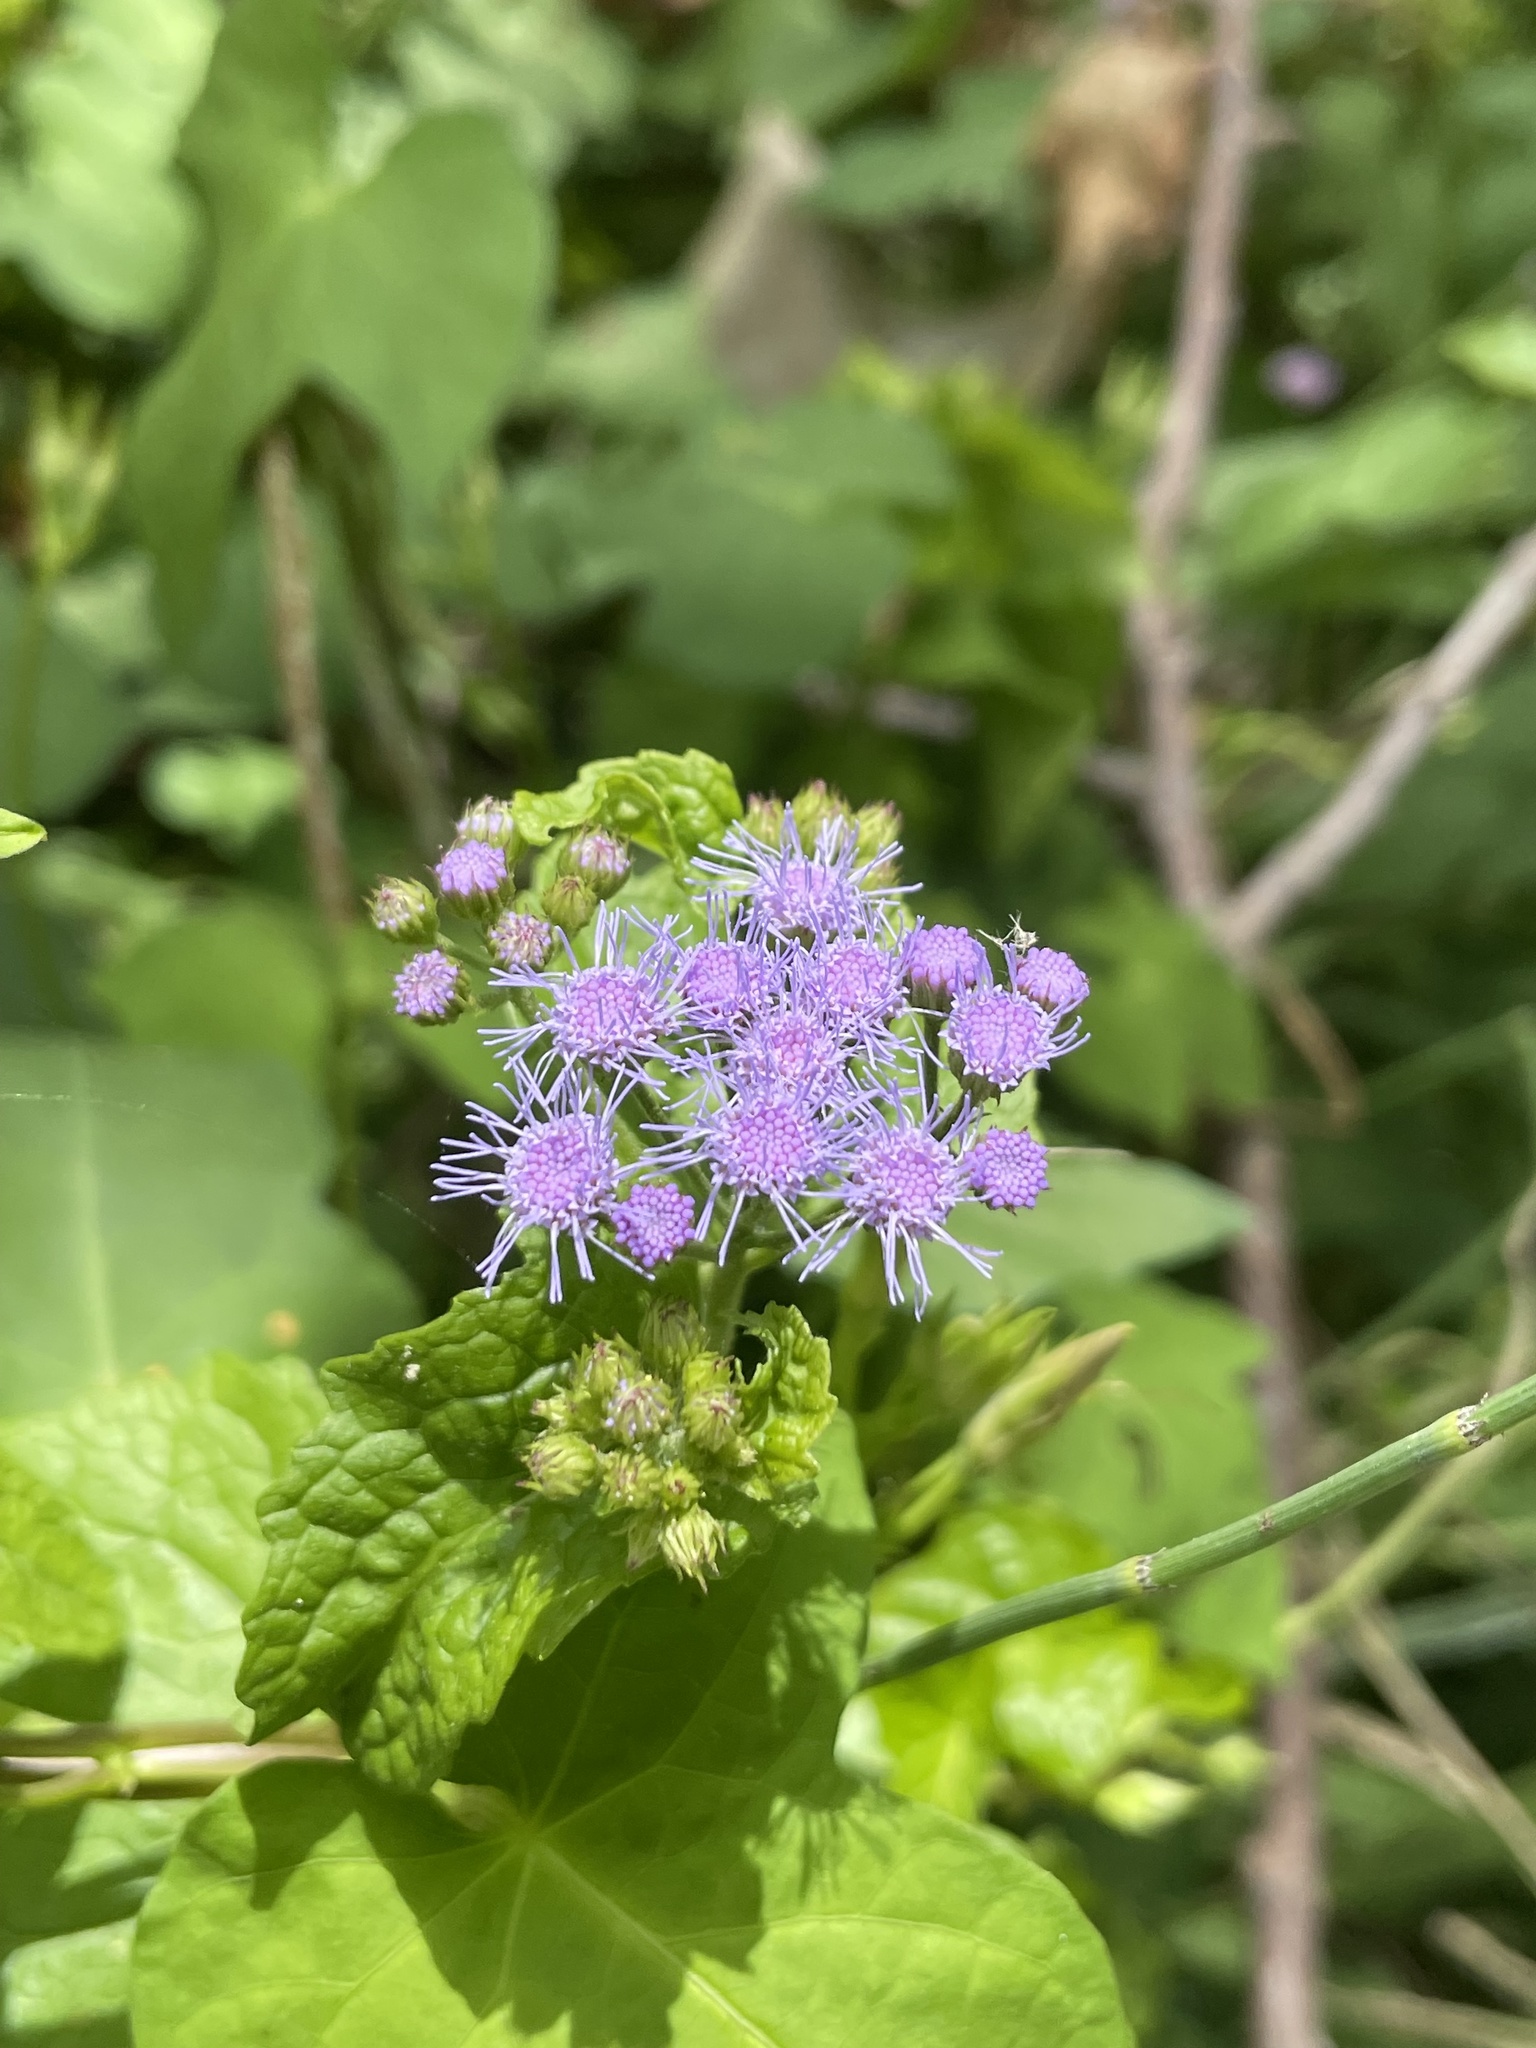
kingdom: Plantae
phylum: Tracheophyta
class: Magnoliopsida
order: Asterales
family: Asteraceae
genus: Conoclinium
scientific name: Conoclinium coelestinum
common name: Blue mistflower
